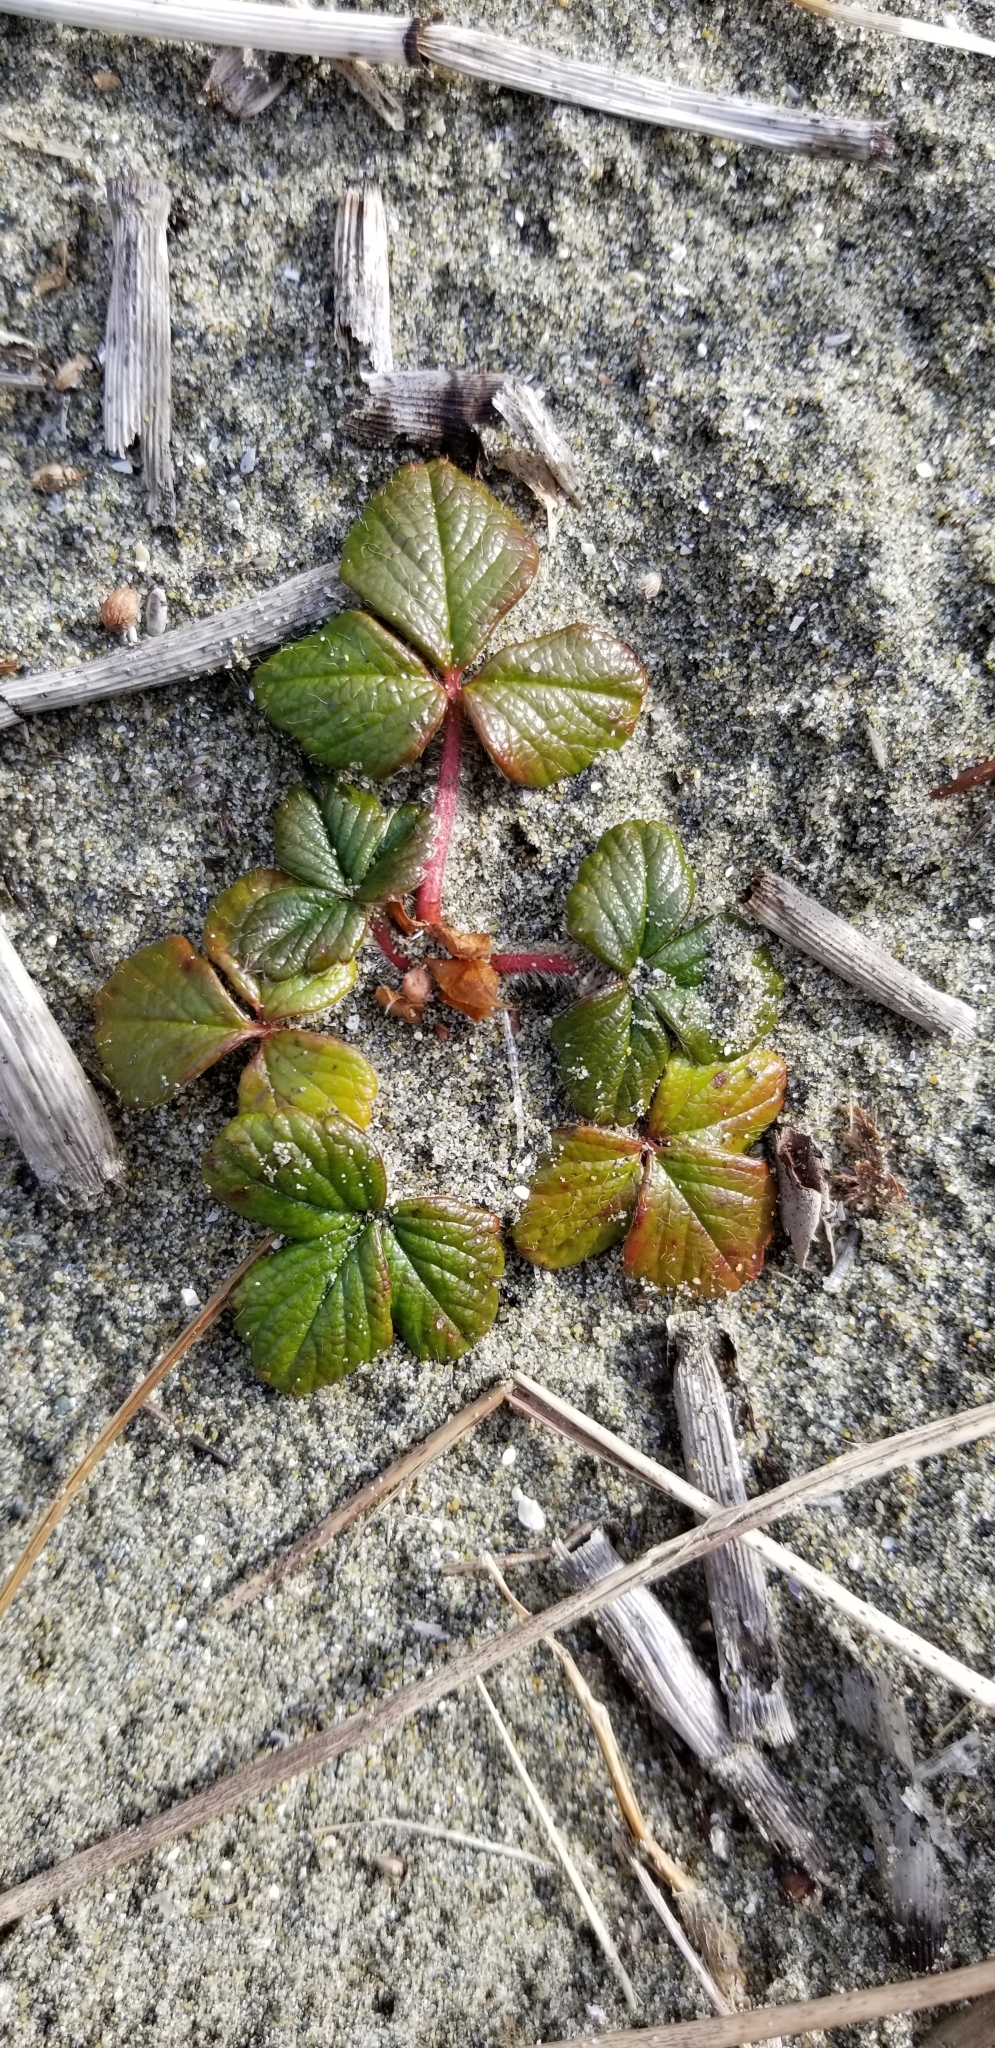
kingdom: Plantae
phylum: Tracheophyta
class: Magnoliopsida
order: Rosales
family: Rosaceae
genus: Fragaria
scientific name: Fragaria chiloensis
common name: Beach strawberry
